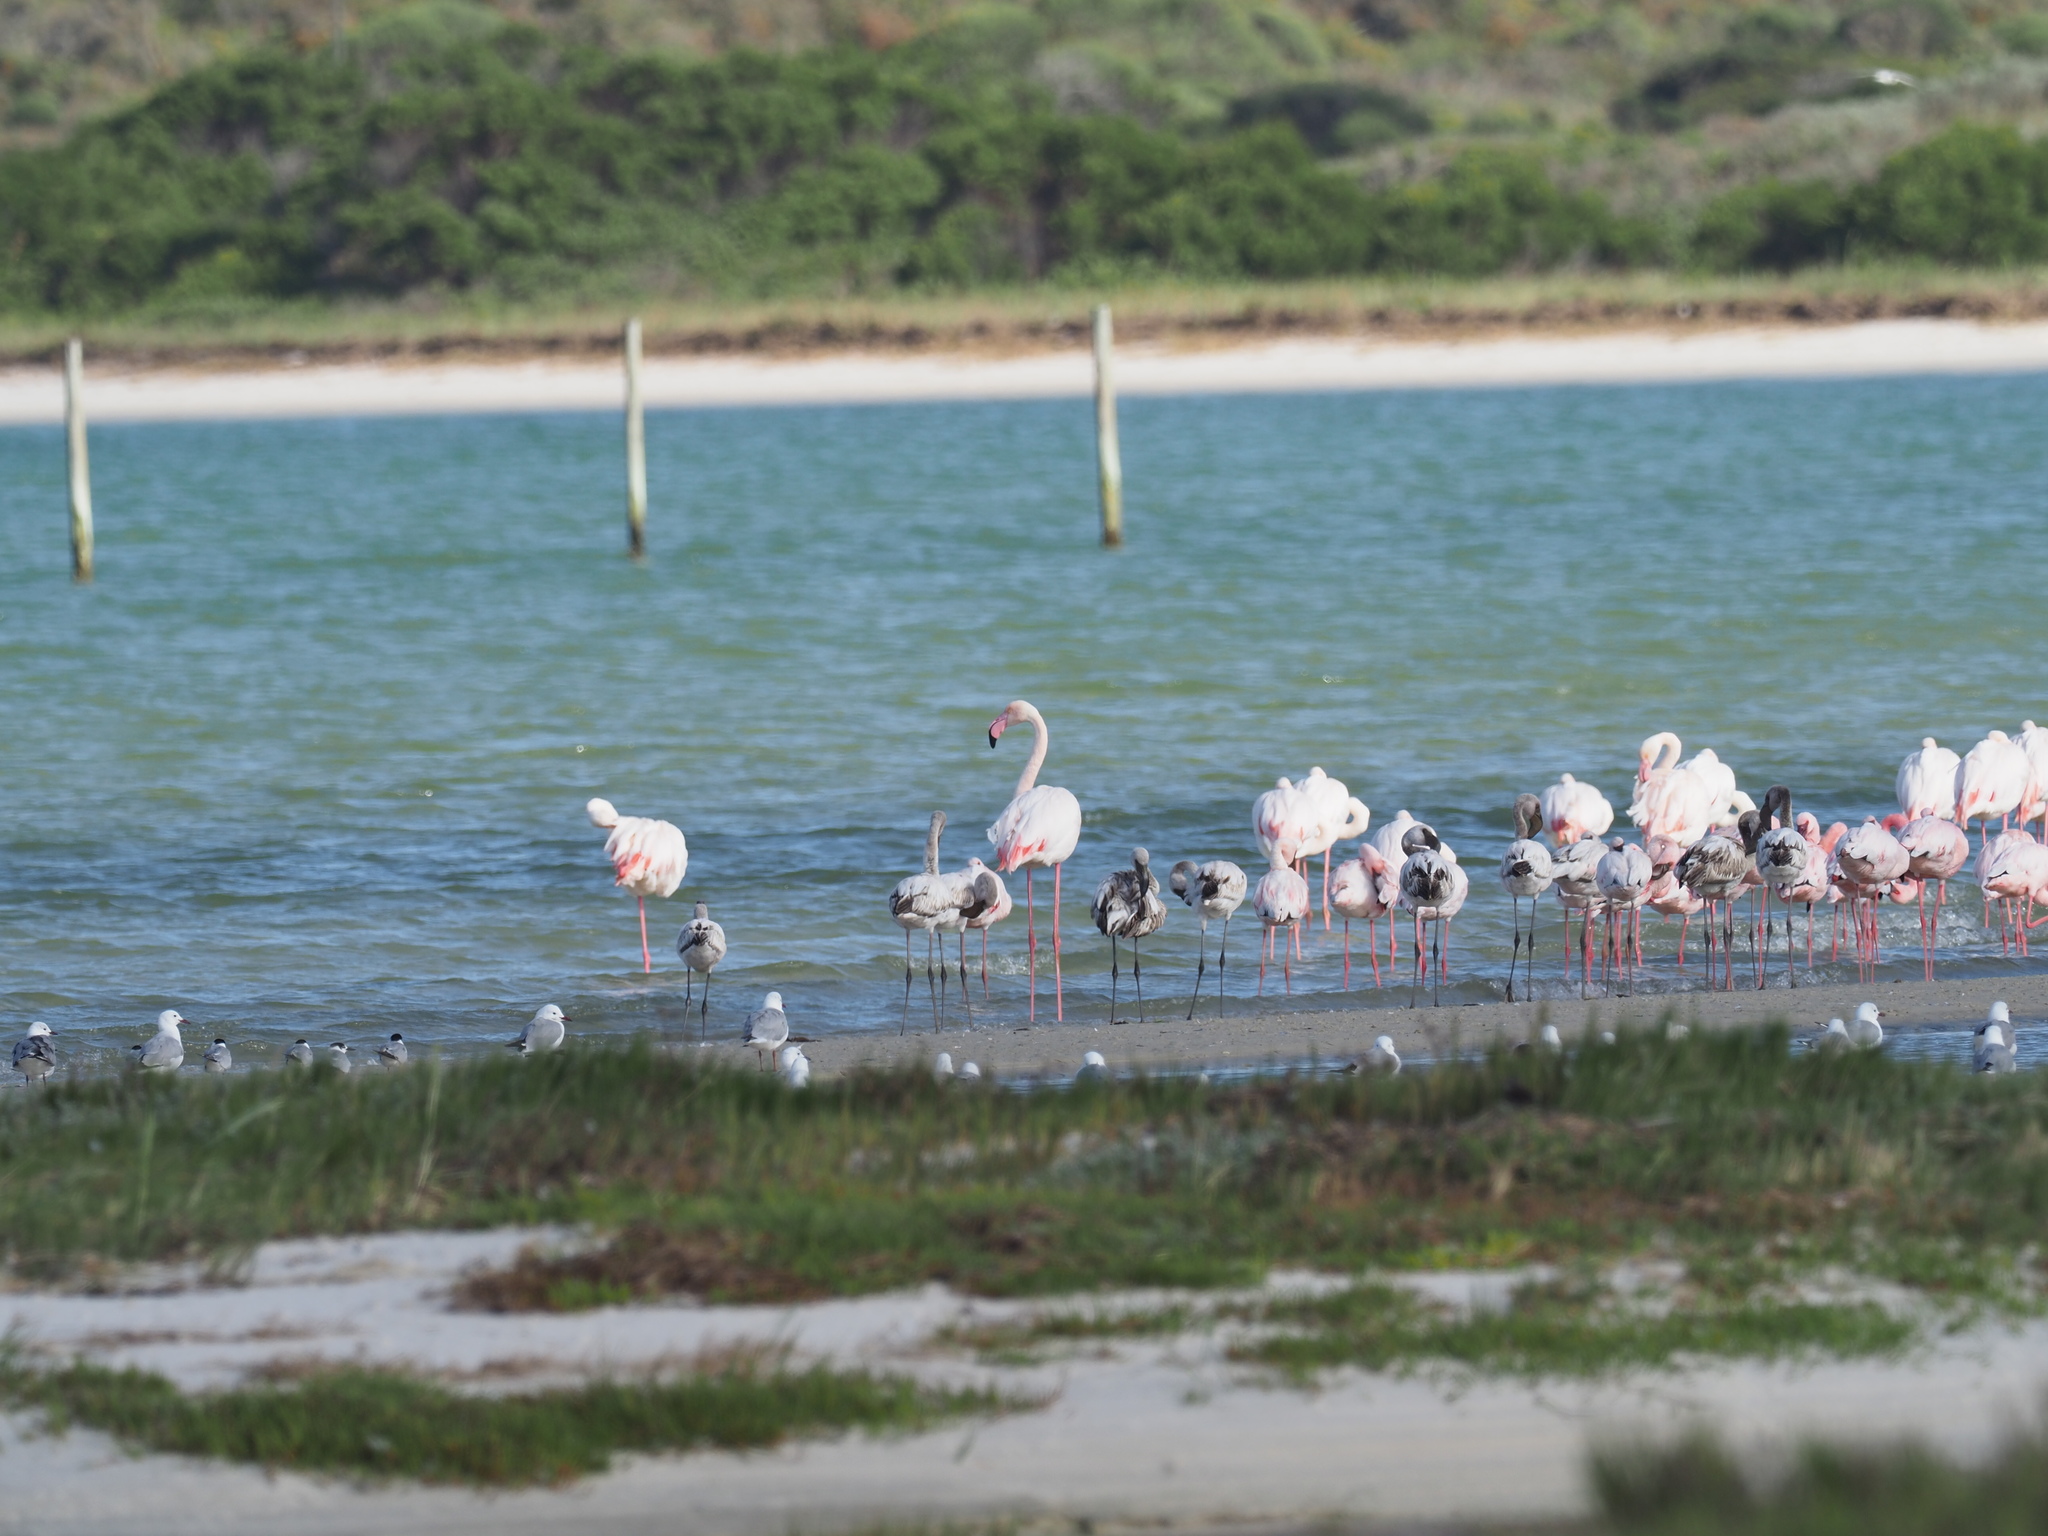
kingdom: Animalia
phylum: Chordata
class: Aves
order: Phoenicopteriformes
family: Phoenicopteridae
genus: Phoeniconaias
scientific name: Phoeniconaias minor
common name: Lesser flamingo
